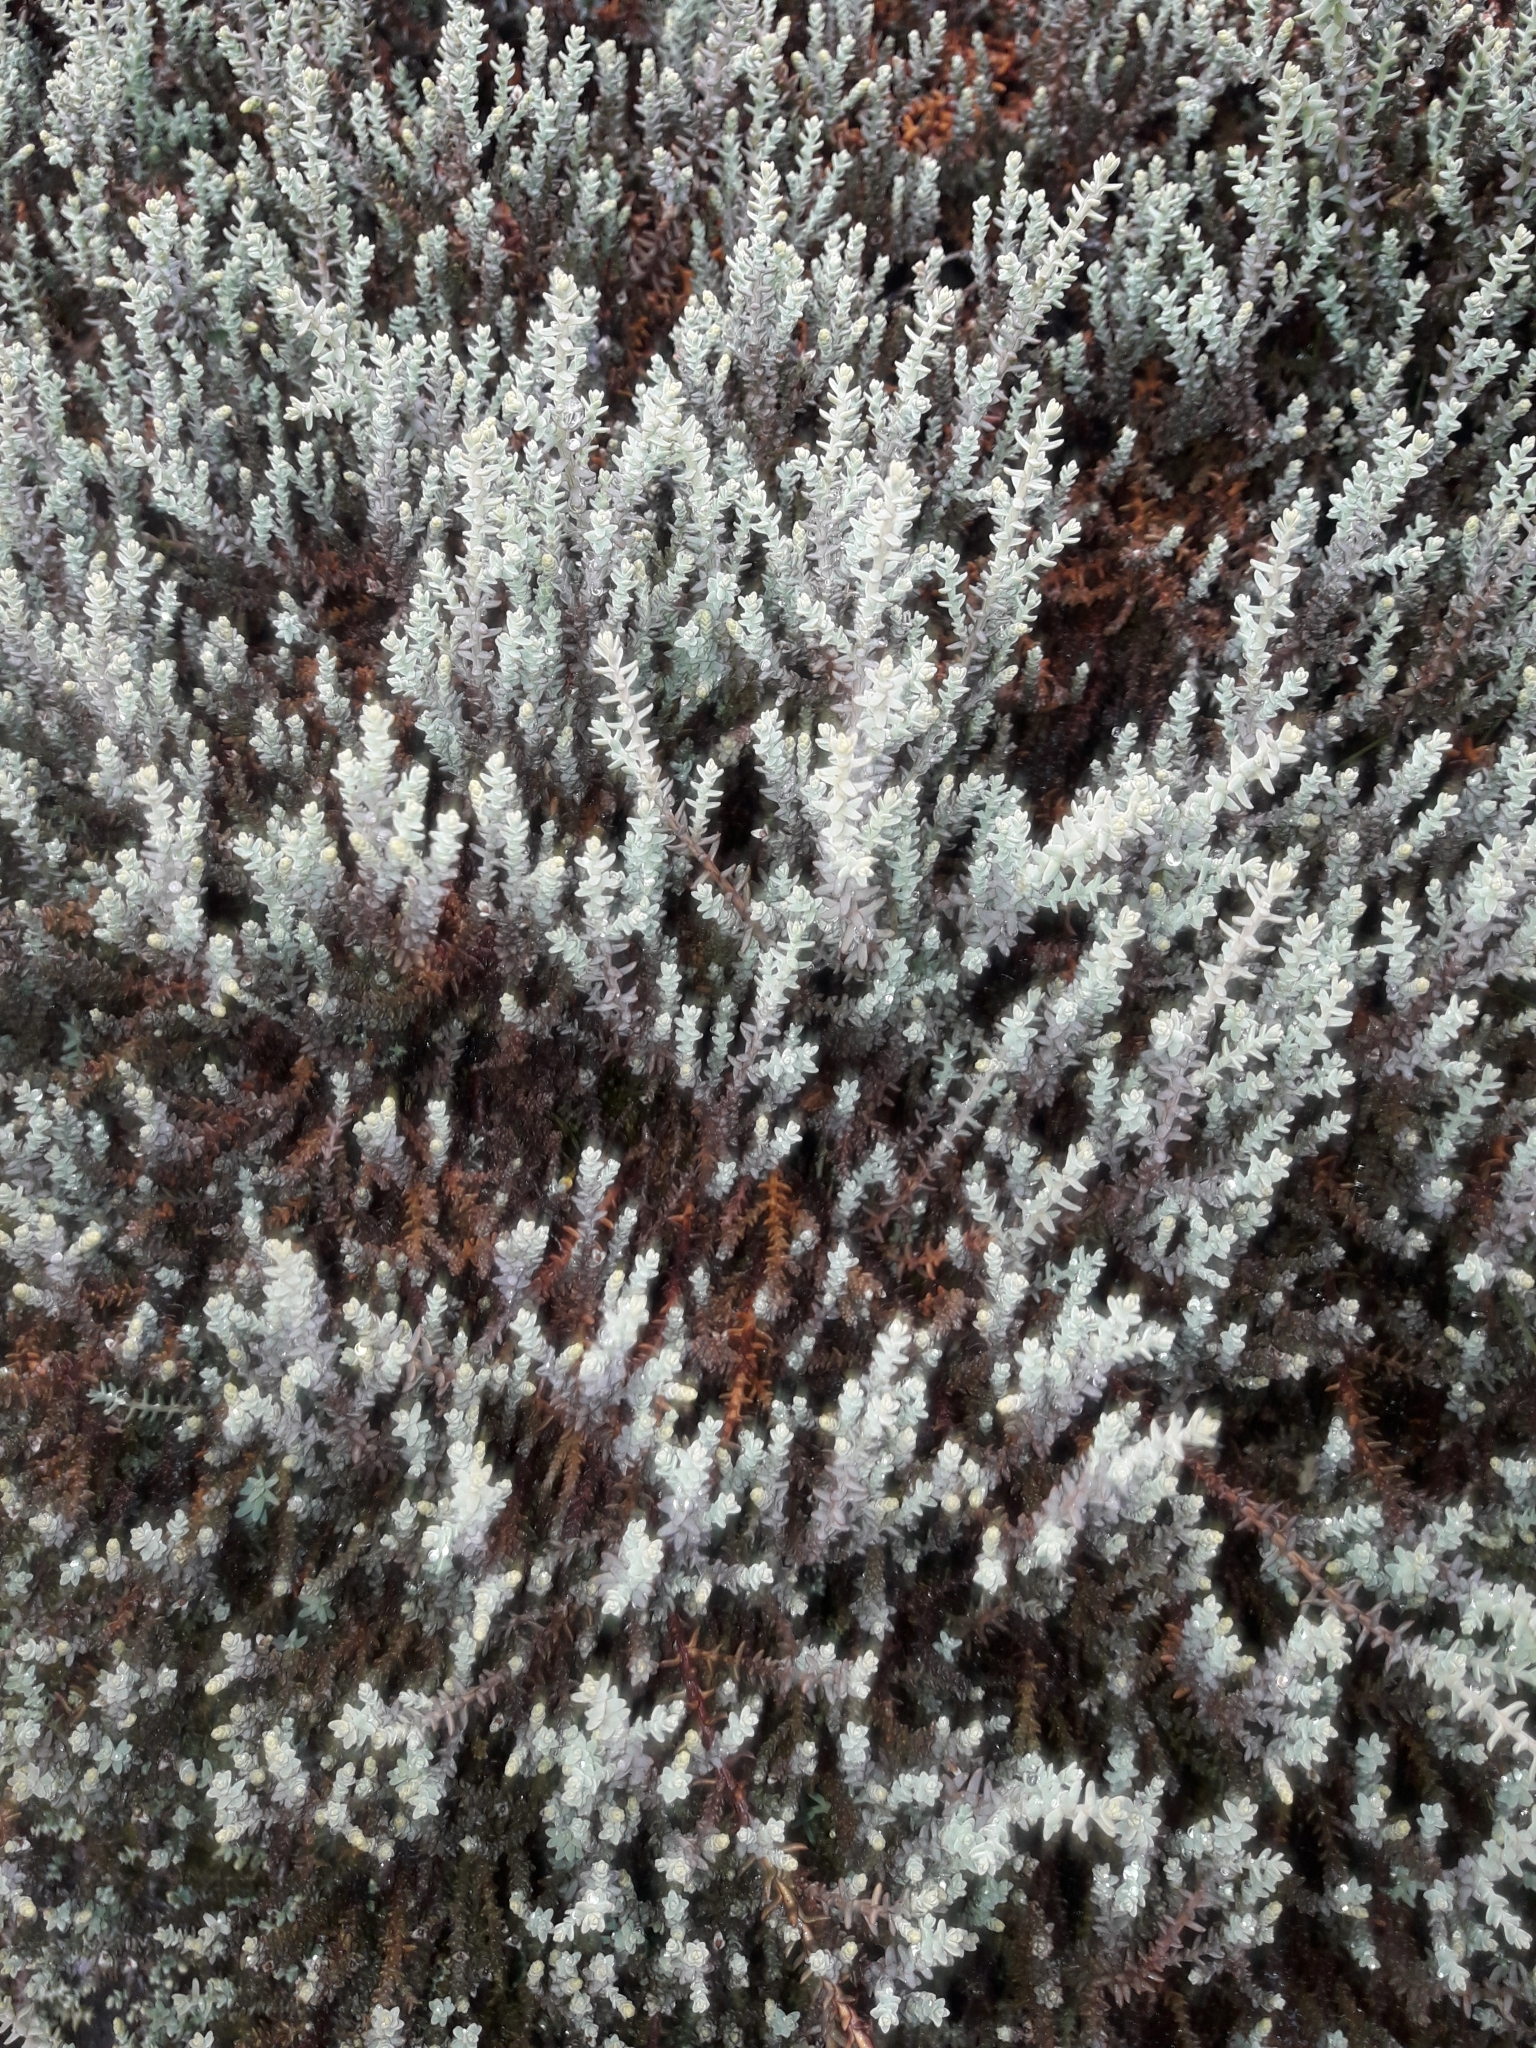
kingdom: Plantae
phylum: Tracheophyta
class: Pinopsida
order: Pinales
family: Podocarpaceae
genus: Lepidothamnus
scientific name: Lepidothamnus laxifolius
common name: Pygmy pine
